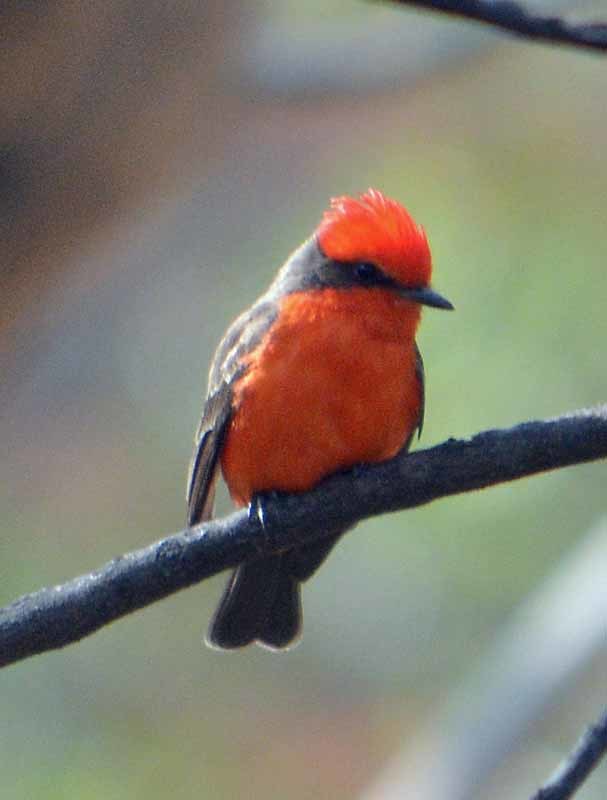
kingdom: Animalia
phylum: Chordata
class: Aves
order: Passeriformes
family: Tyrannidae
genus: Pyrocephalus
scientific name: Pyrocephalus rubinus
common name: Vermilion flycatcher
